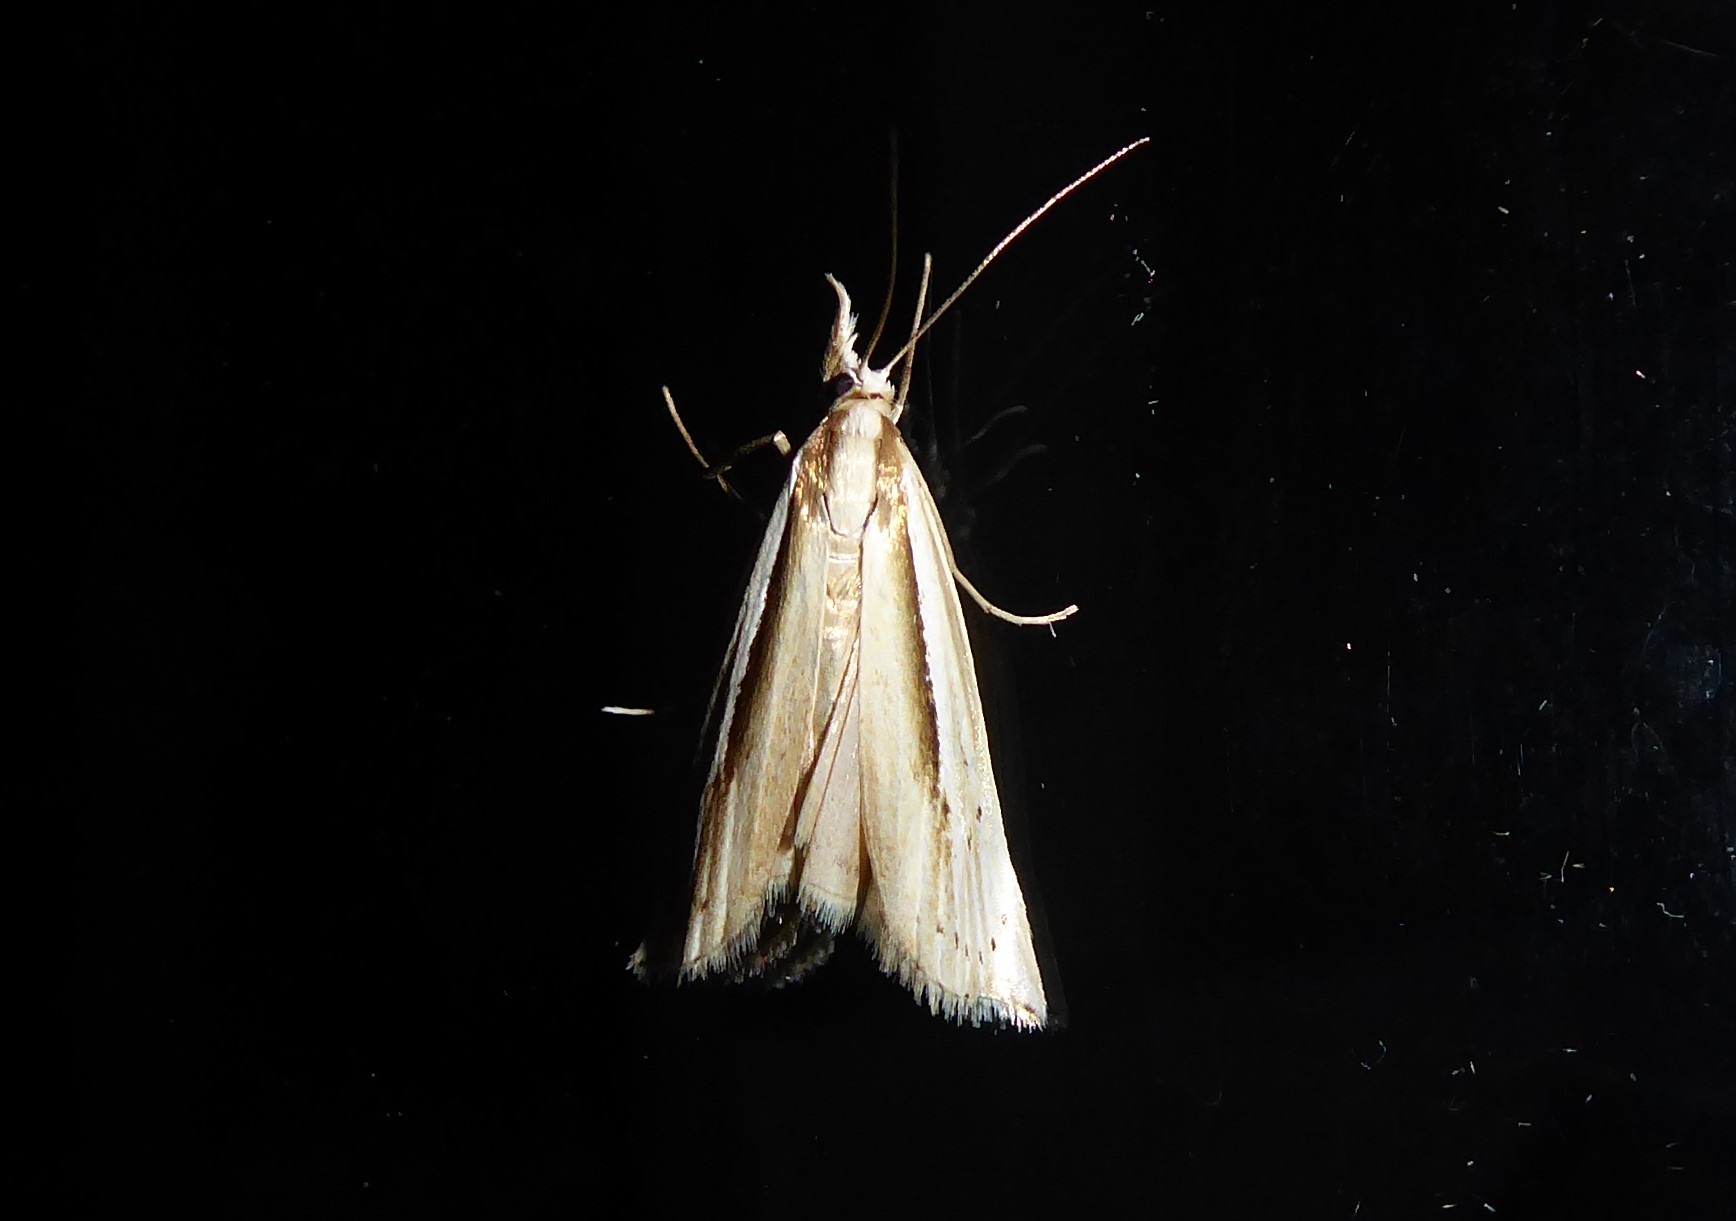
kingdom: Animalia
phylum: Arthropoda
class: Insecta
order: Lepidoptera
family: Crambidae
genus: Orocrambus
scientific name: Orocrambus ramosellus
